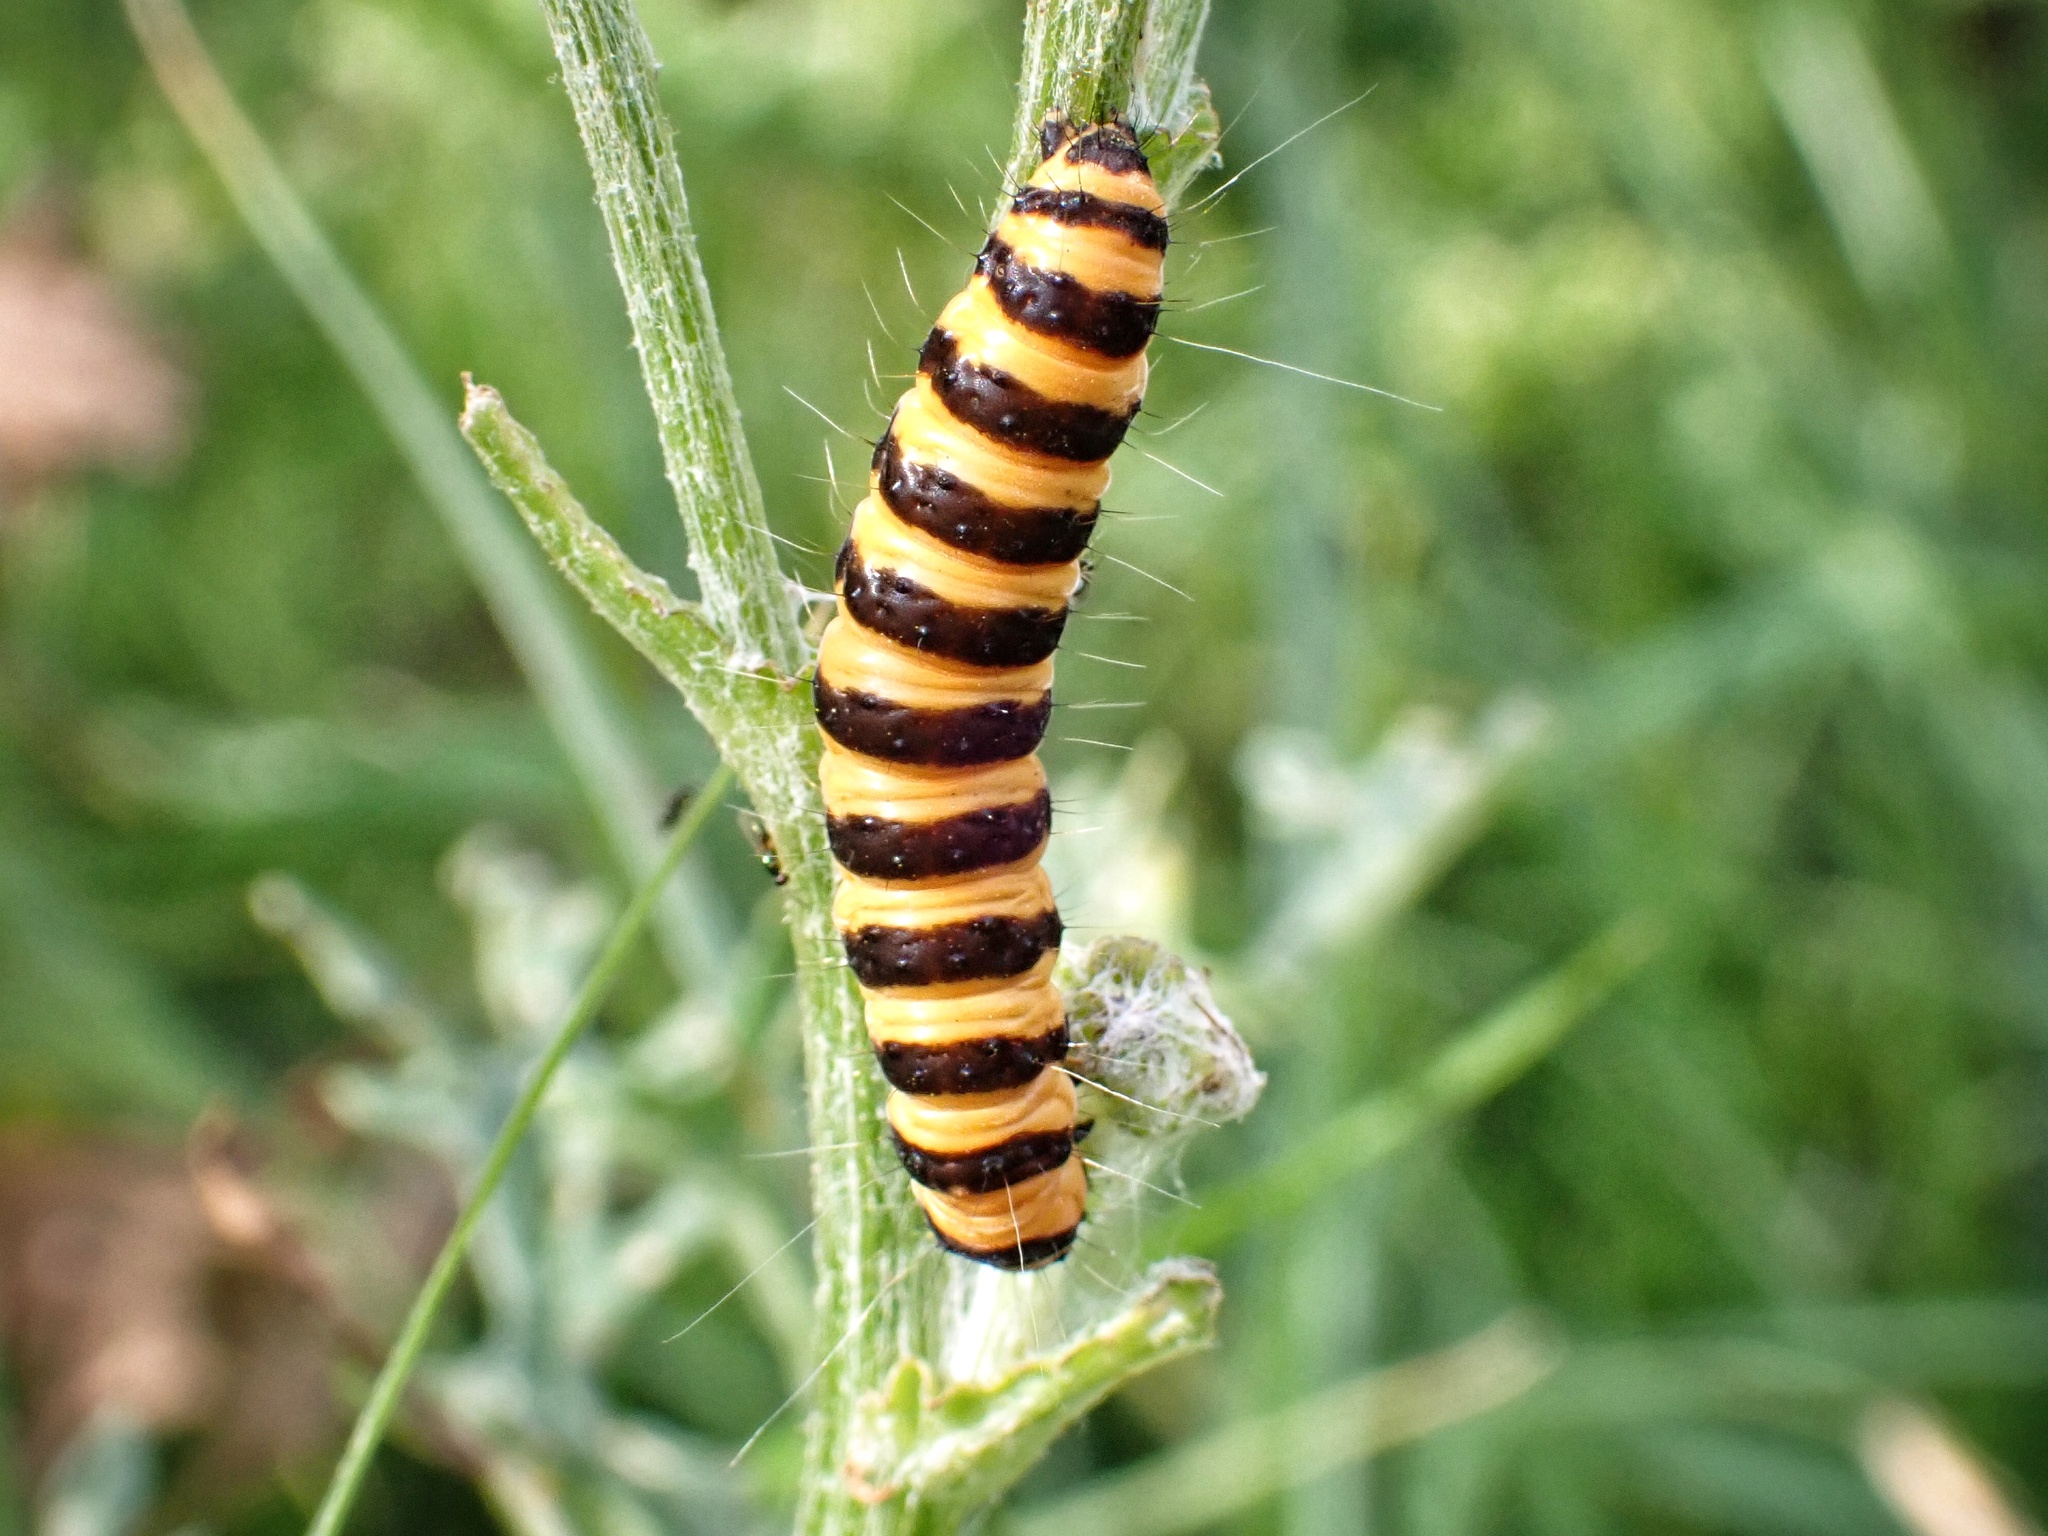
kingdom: Animalia
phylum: Arthropoda
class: Insecta
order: Lepidoptera
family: Erebidae
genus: Tyria
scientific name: Tyria jacobaeae
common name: Cinnabar
